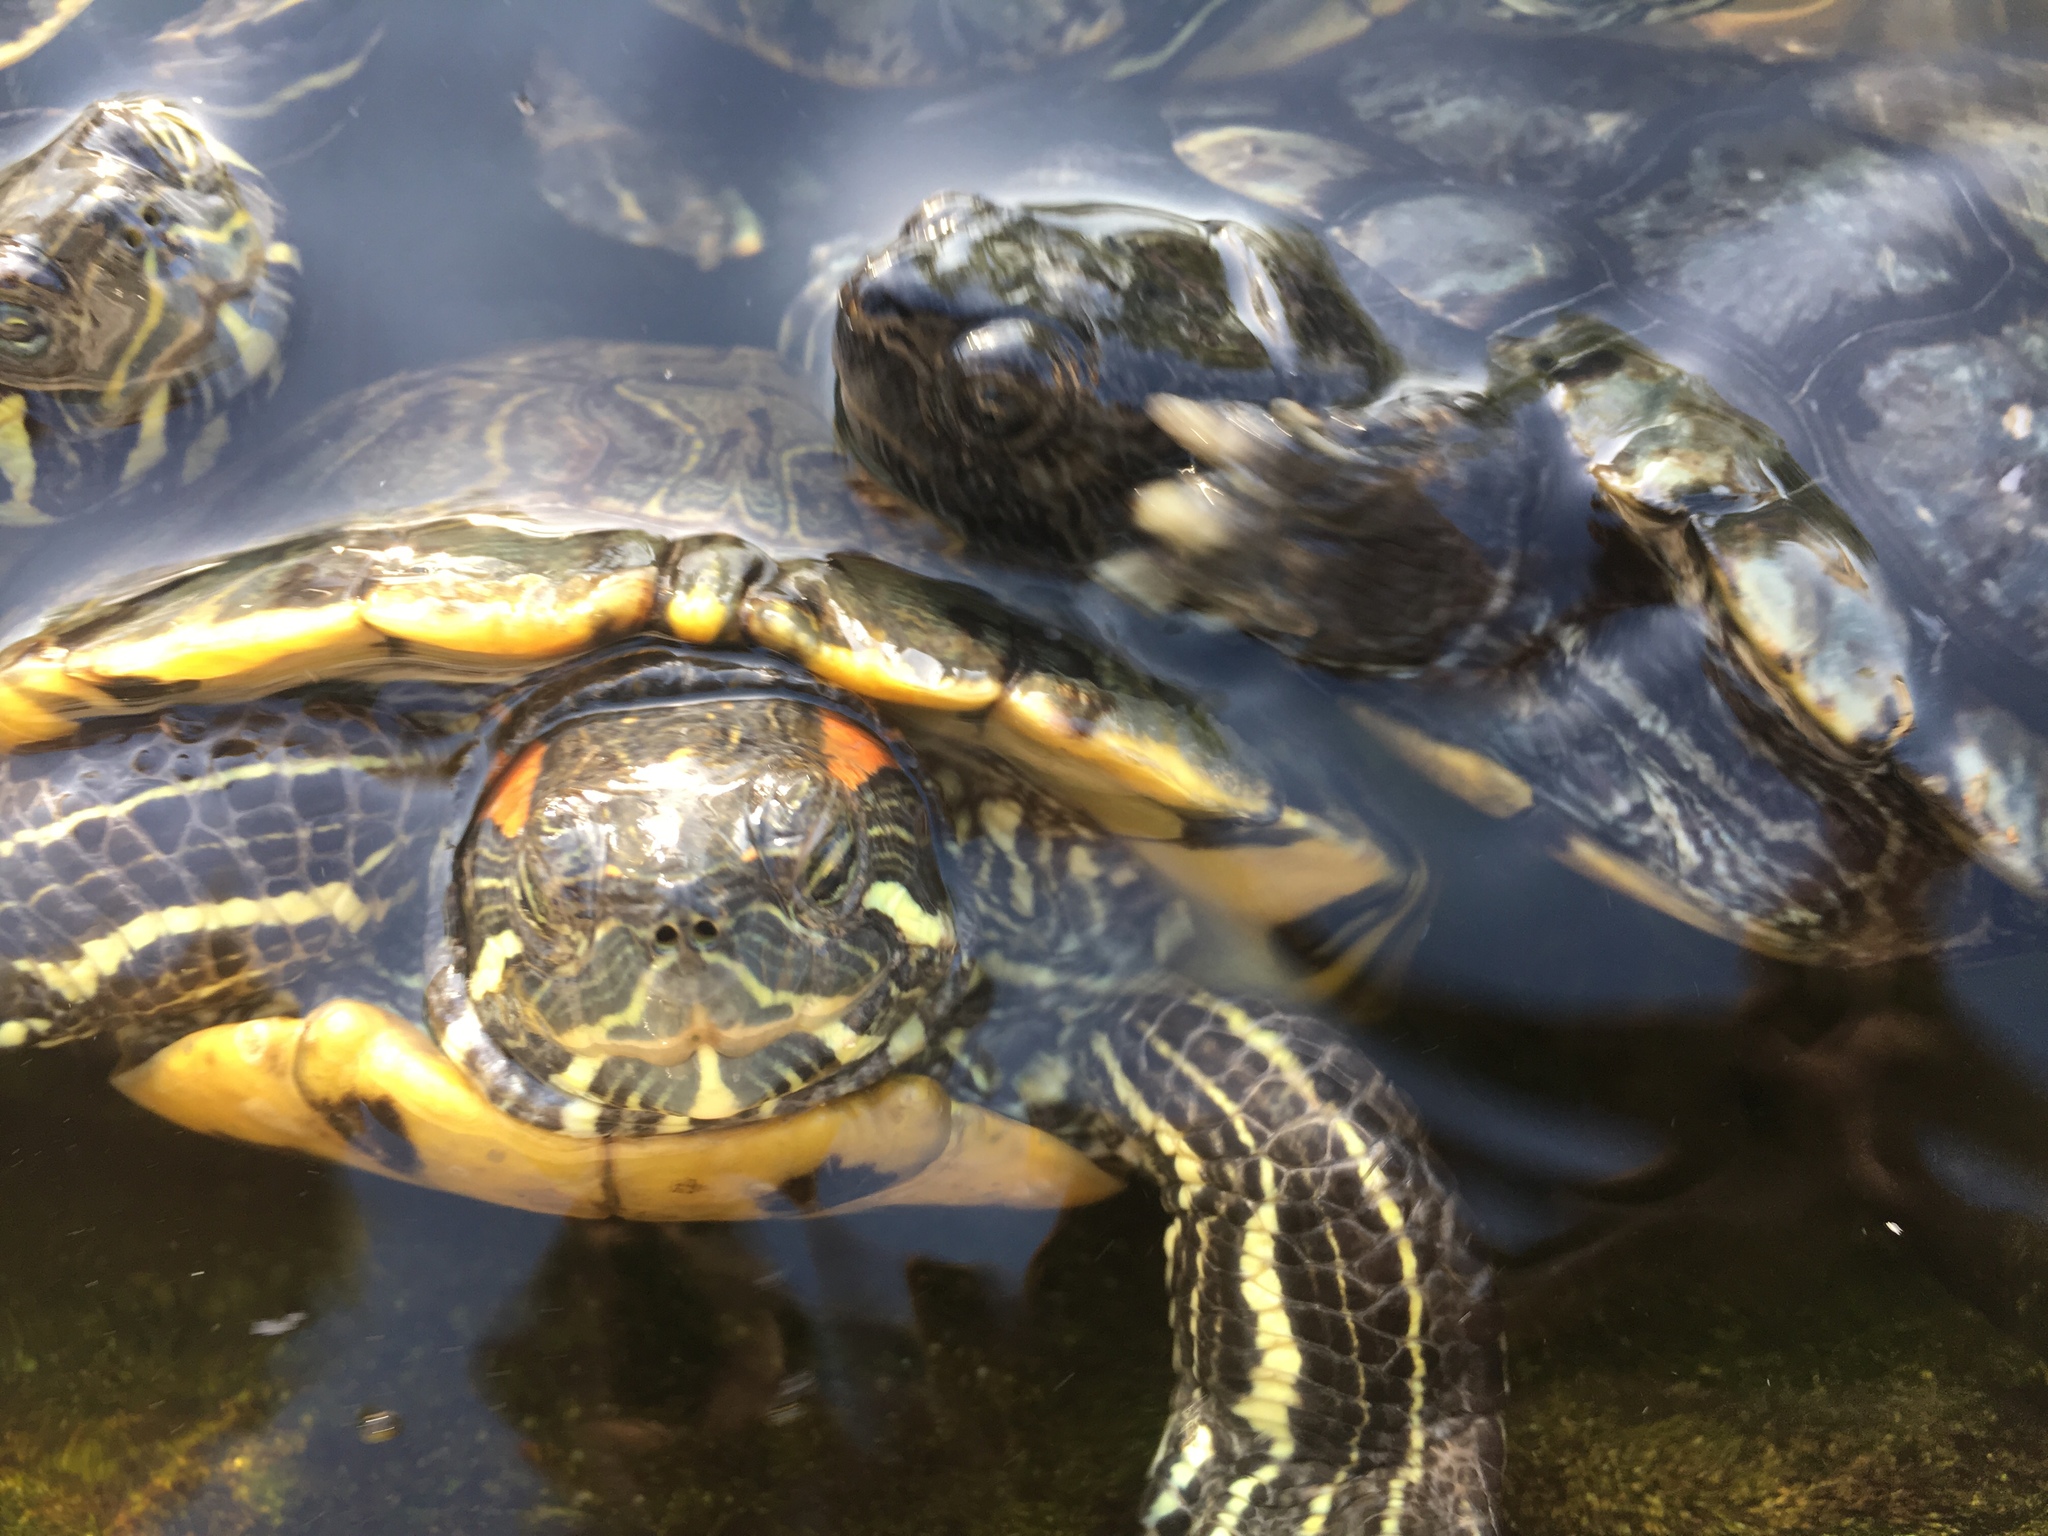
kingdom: Animalia
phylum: Chordata
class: Testudines
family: Emydidae
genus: Trachemys
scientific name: Trachemys scripta
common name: Slider
